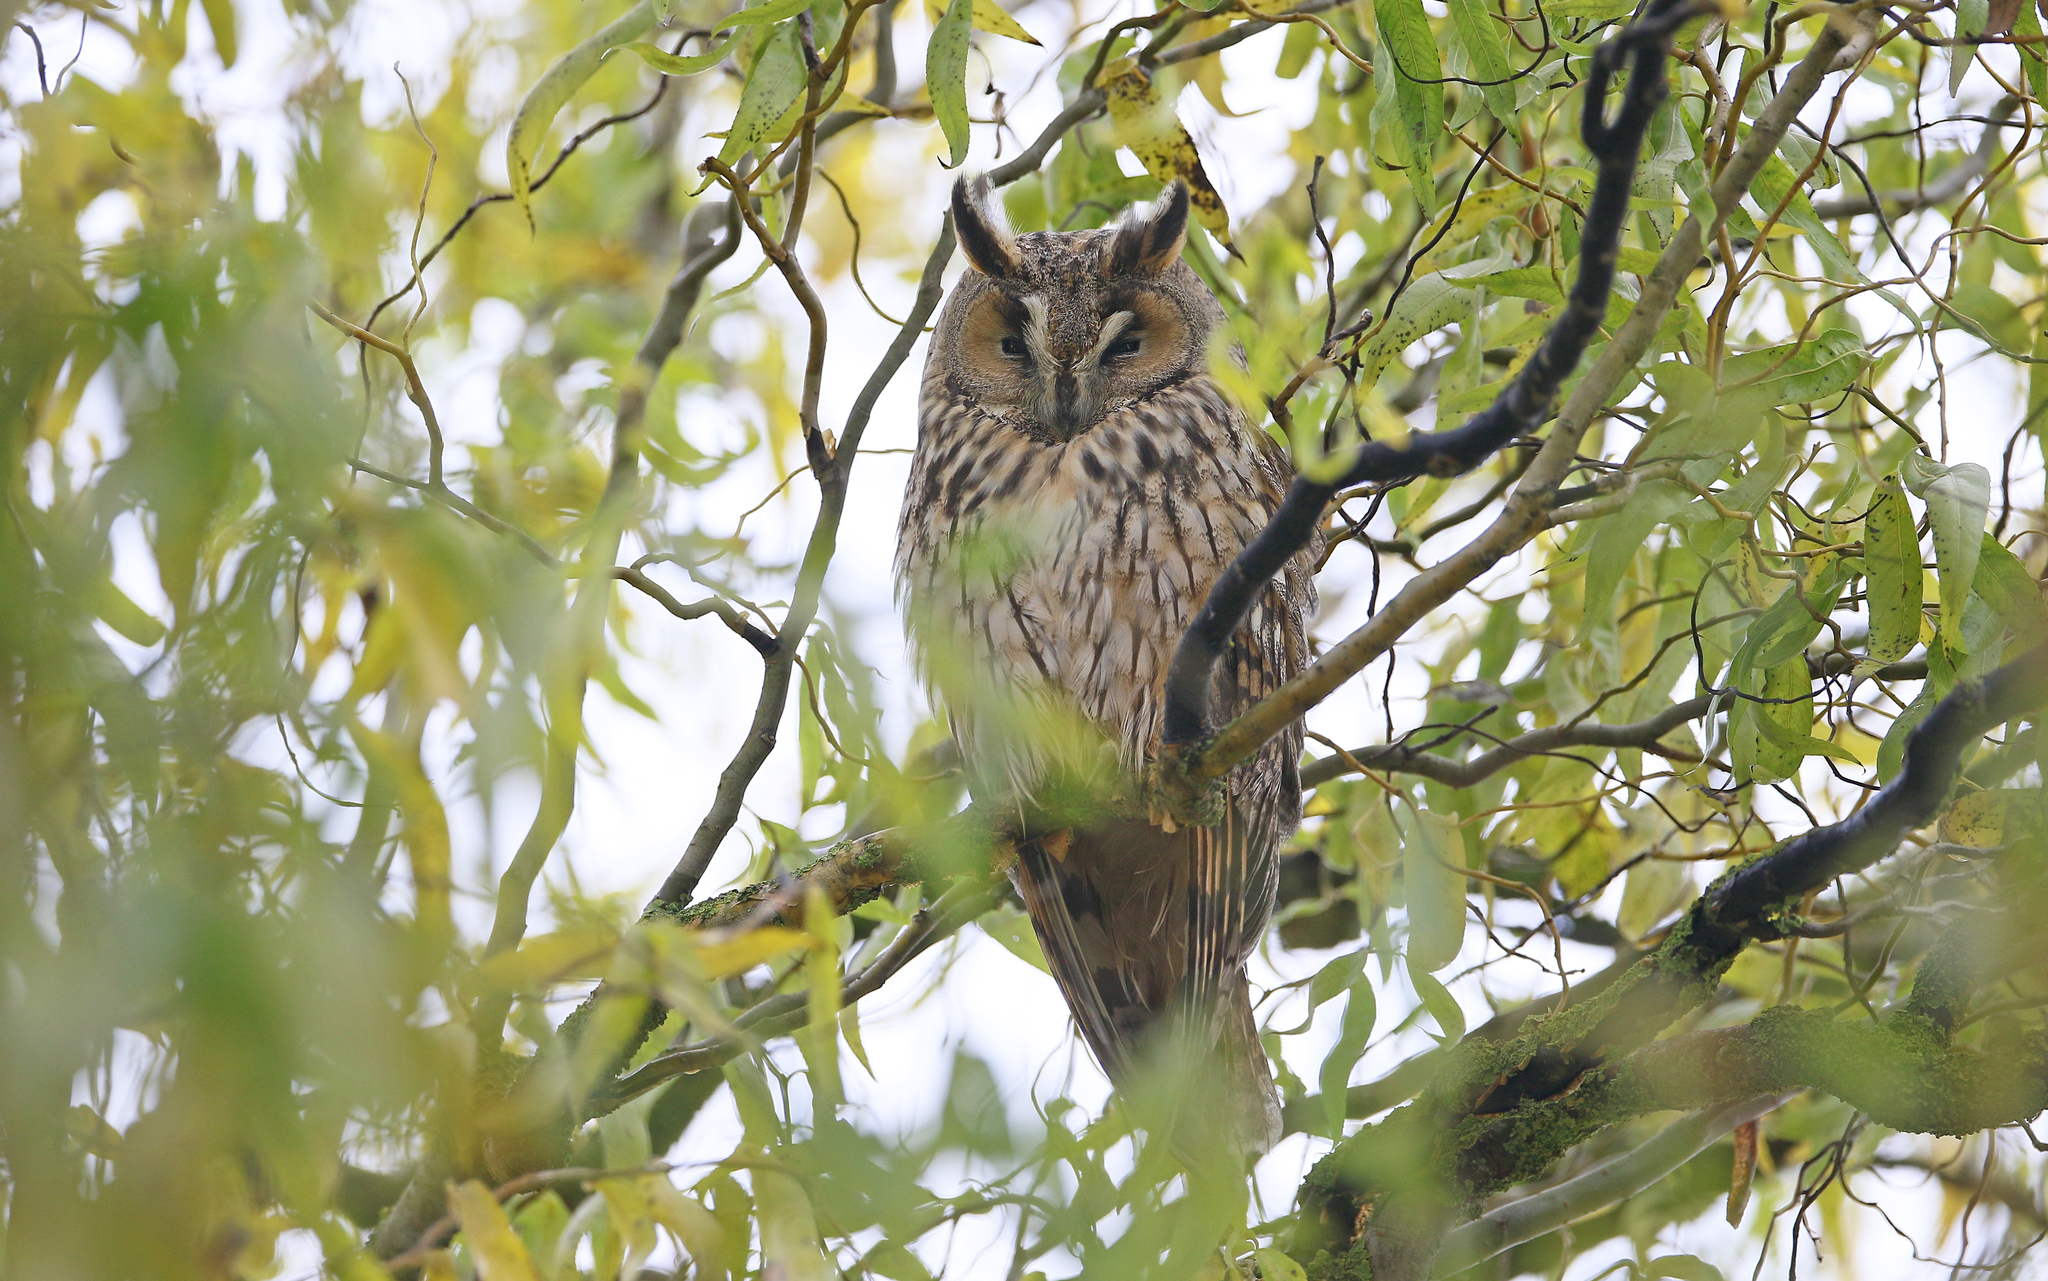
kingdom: Animalia
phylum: Chordata
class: Aves
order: Strigiformes
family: Strigidae
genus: Asio
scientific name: Asio otus
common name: Long-eared owl
